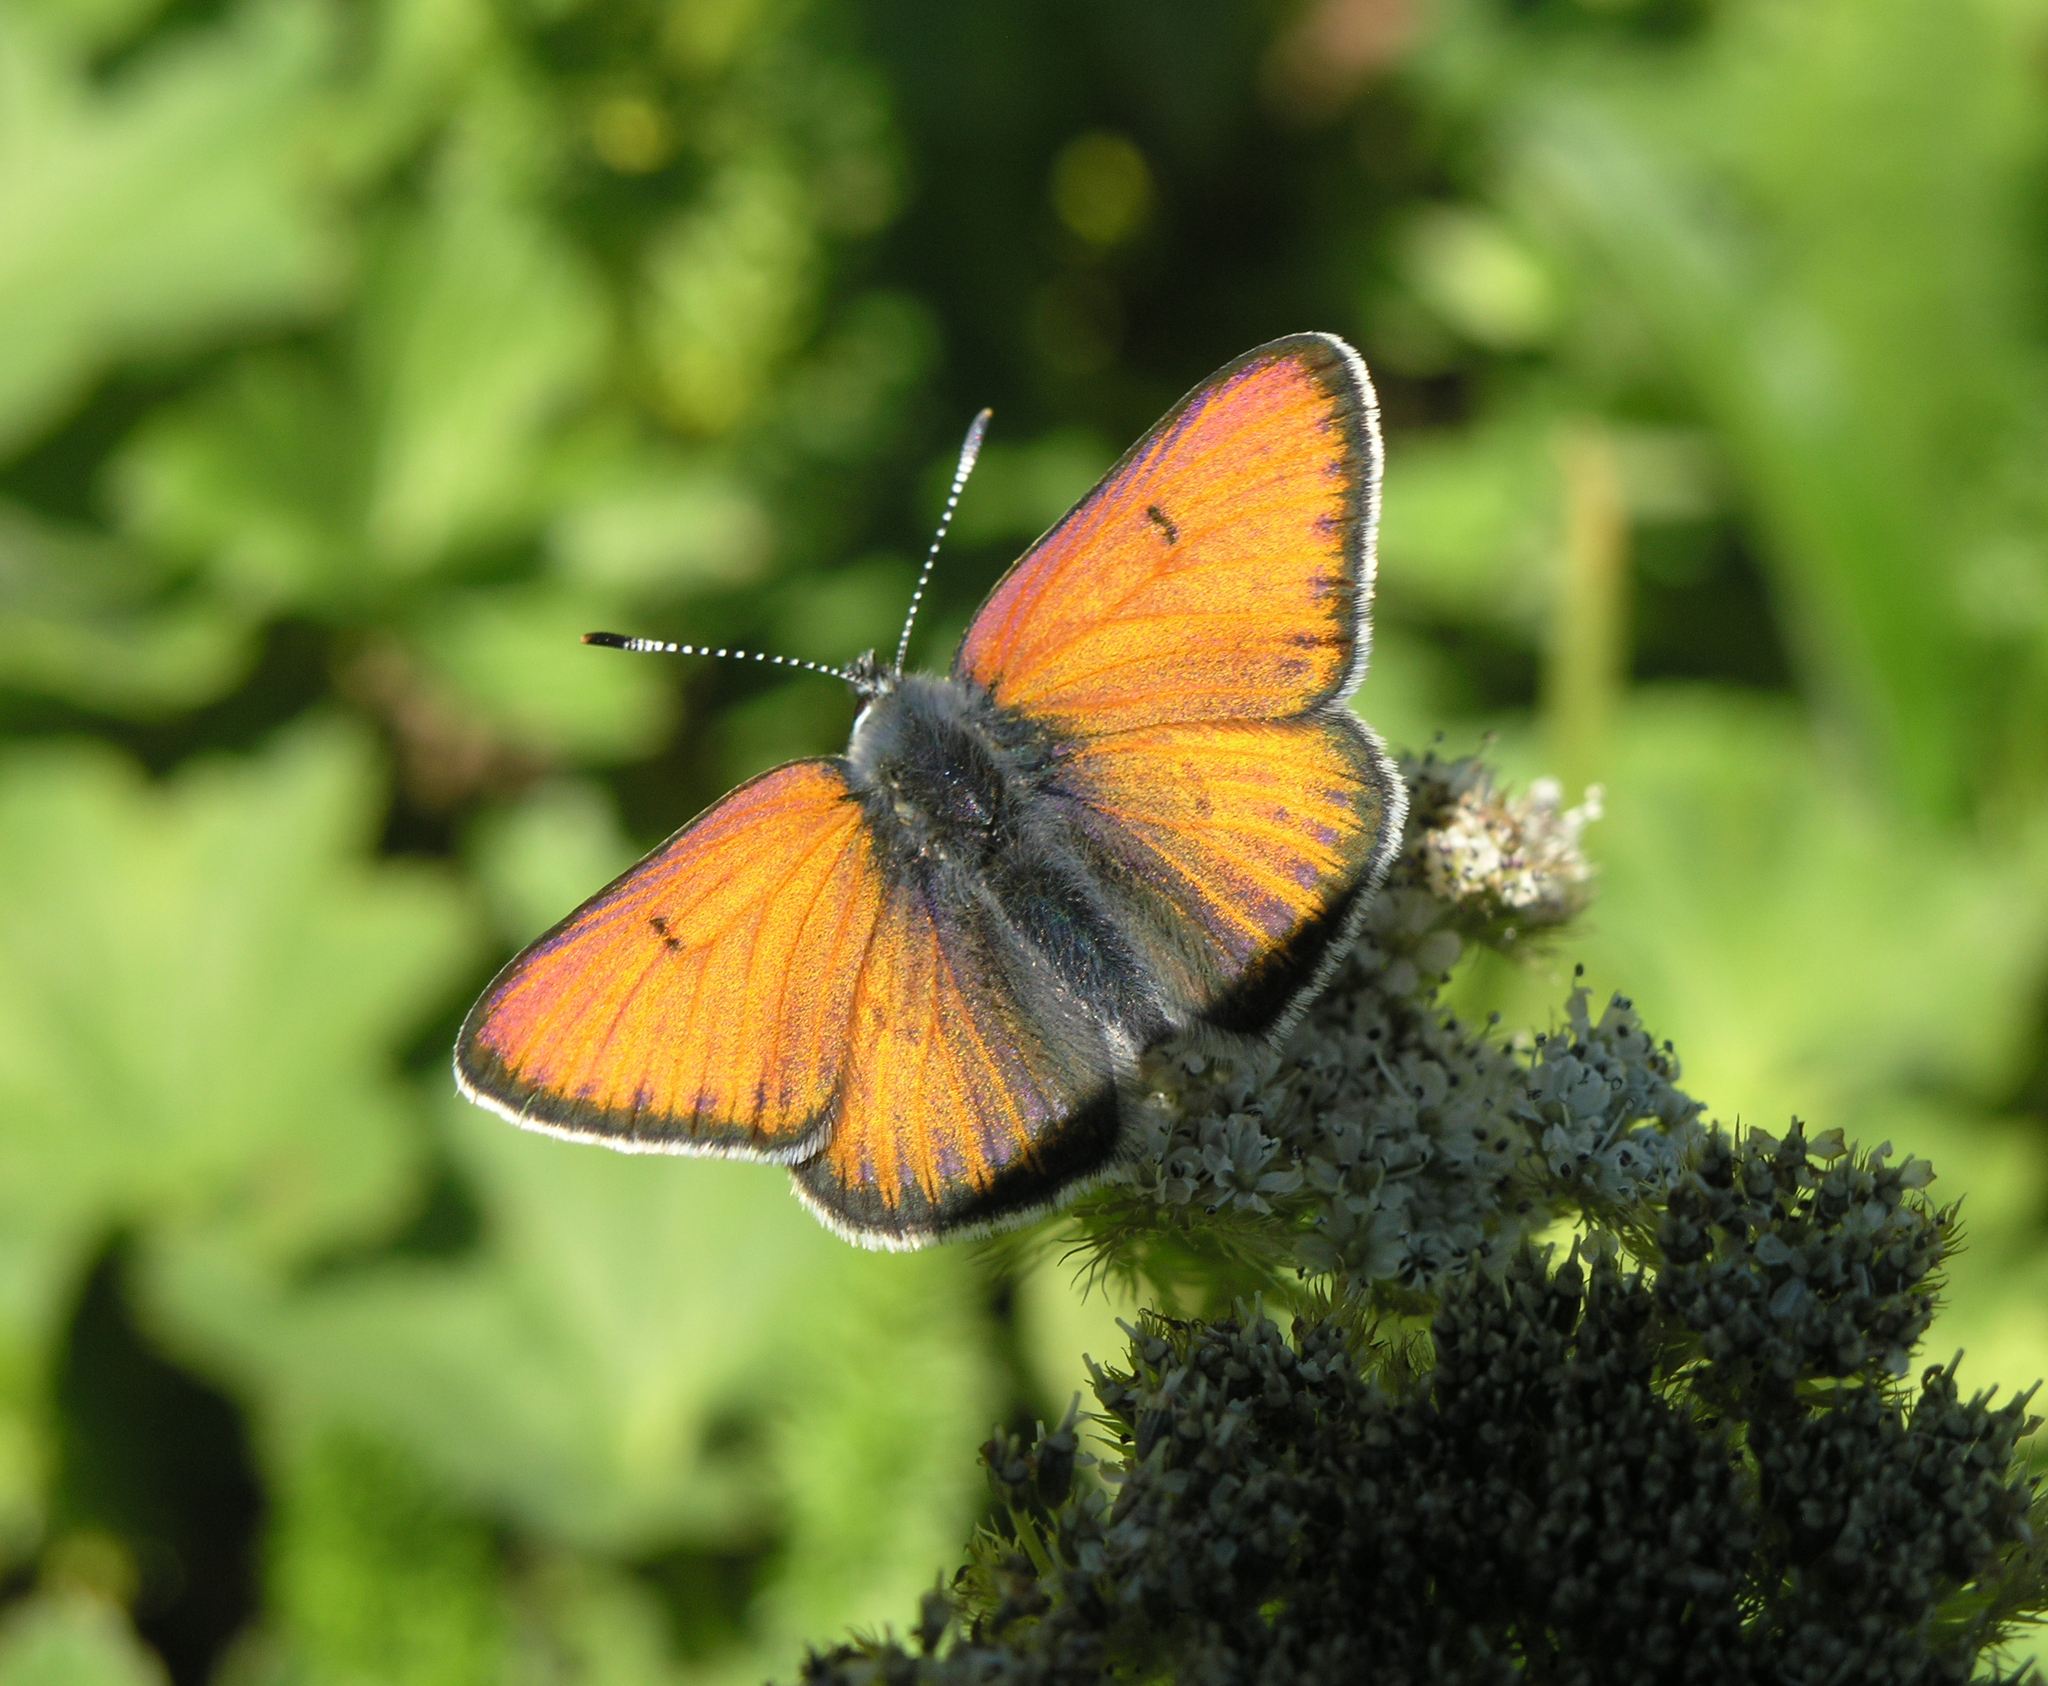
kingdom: Animalia
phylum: Arthropoda
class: Insecta
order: Lepidoptera
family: Lycaenidae
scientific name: Lycaenidae
